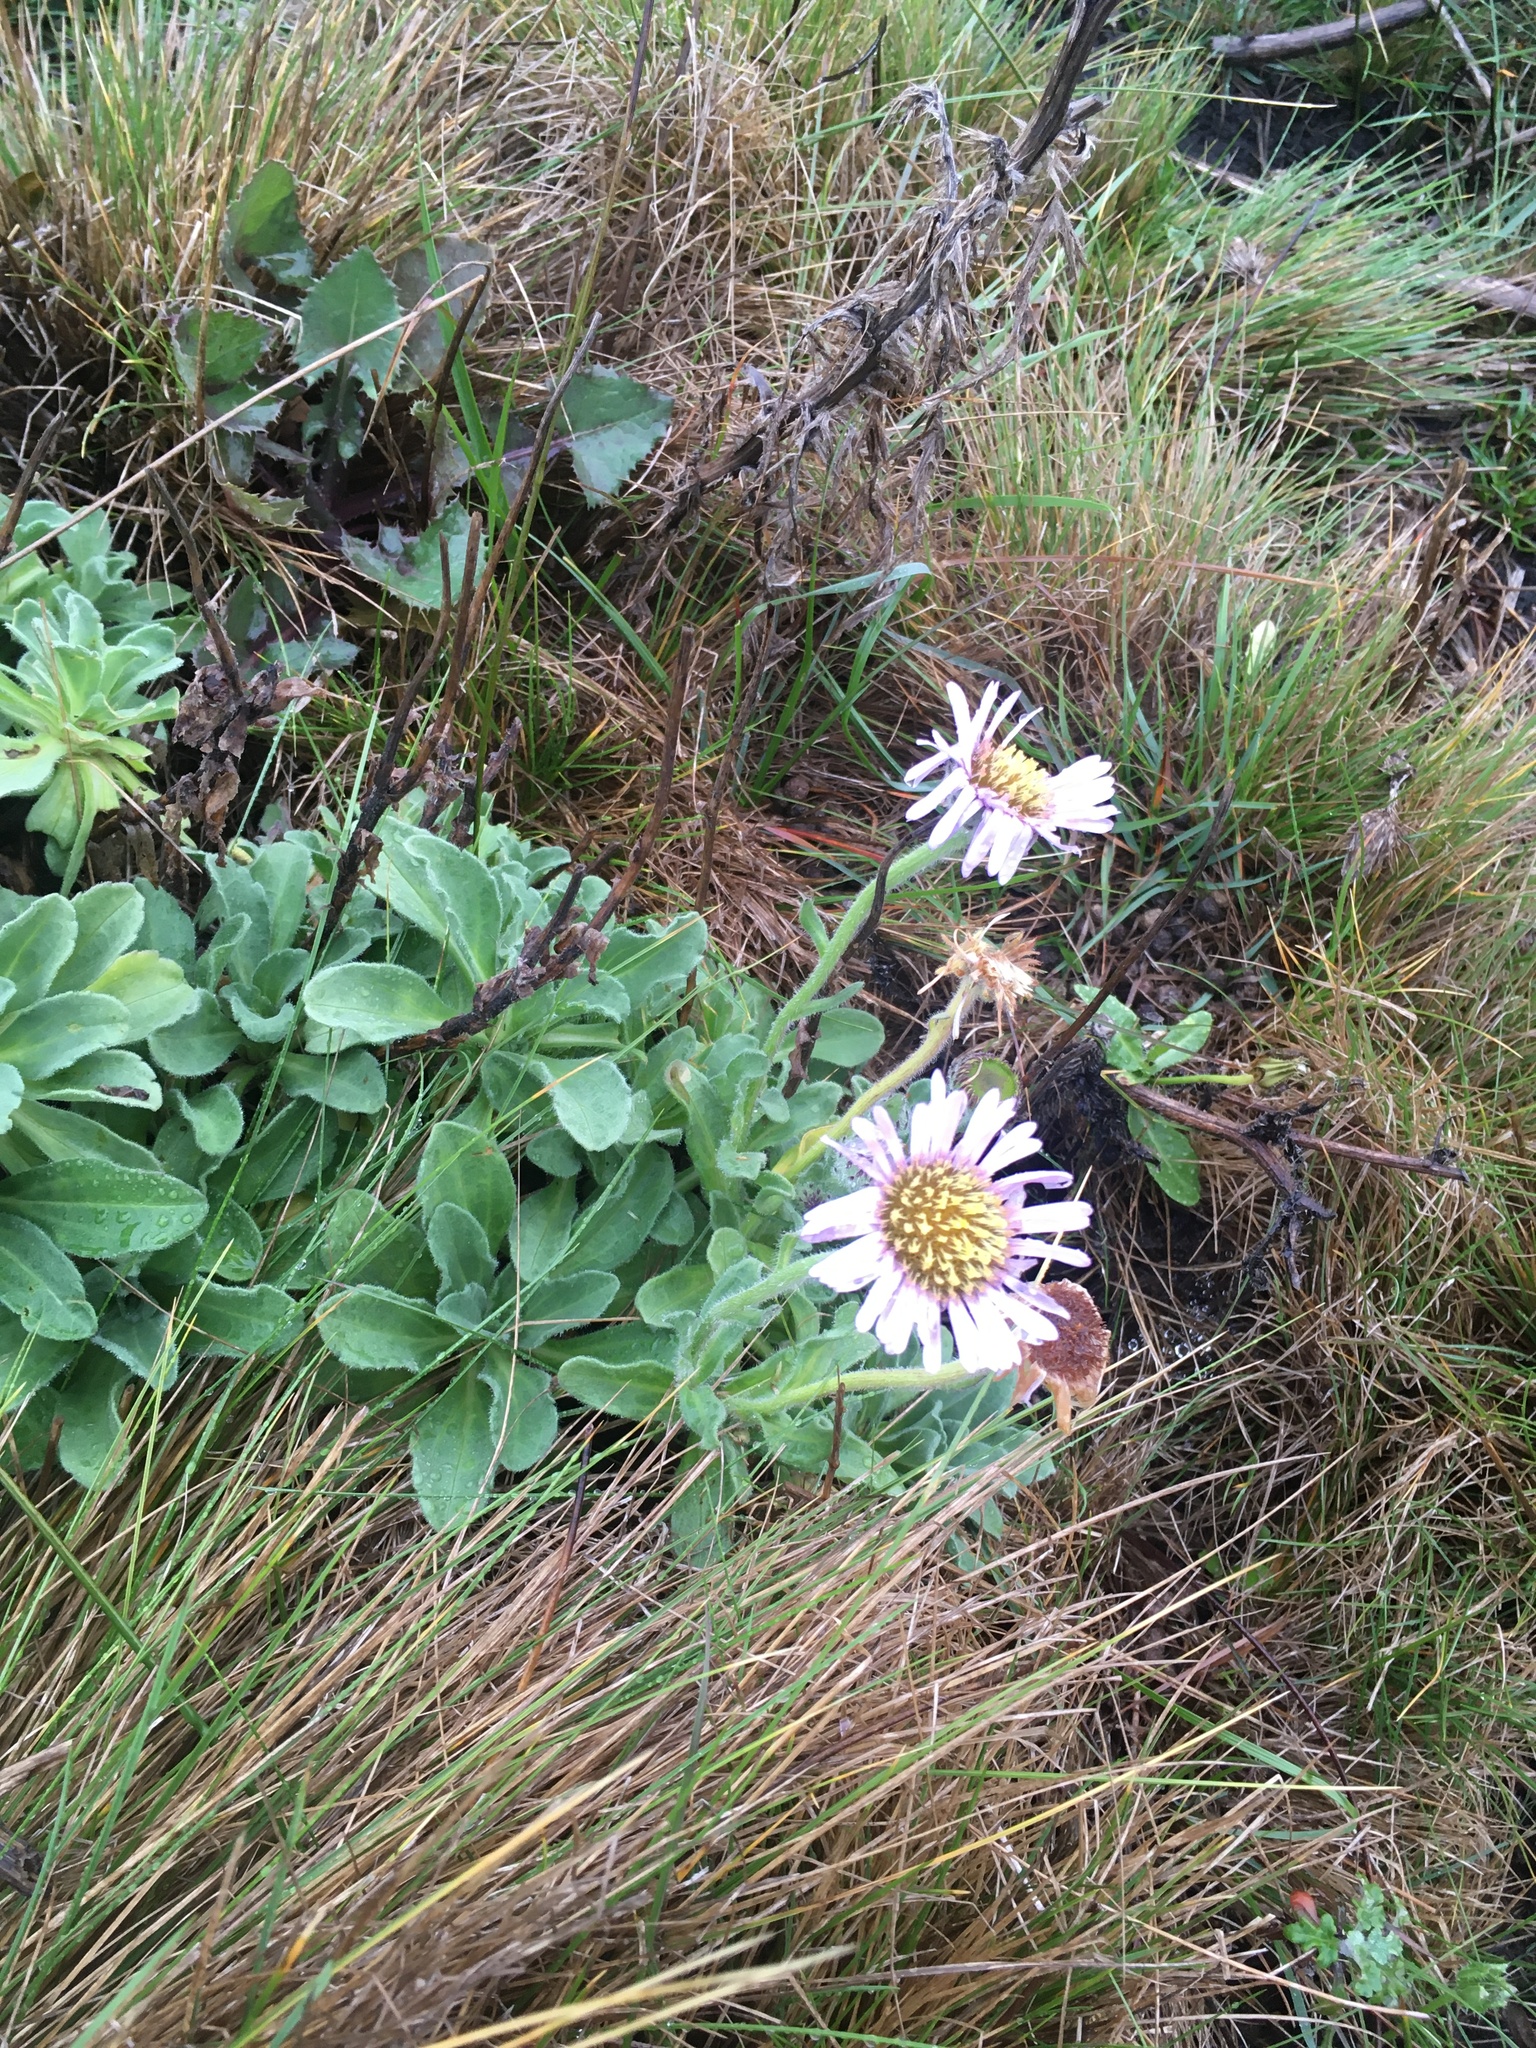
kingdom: Plantae
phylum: Tracheophyta
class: Magnoliopsida
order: Asterales
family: Asteraceae
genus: Erigeron
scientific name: Erigeron glaucus
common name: Seaside daisy
